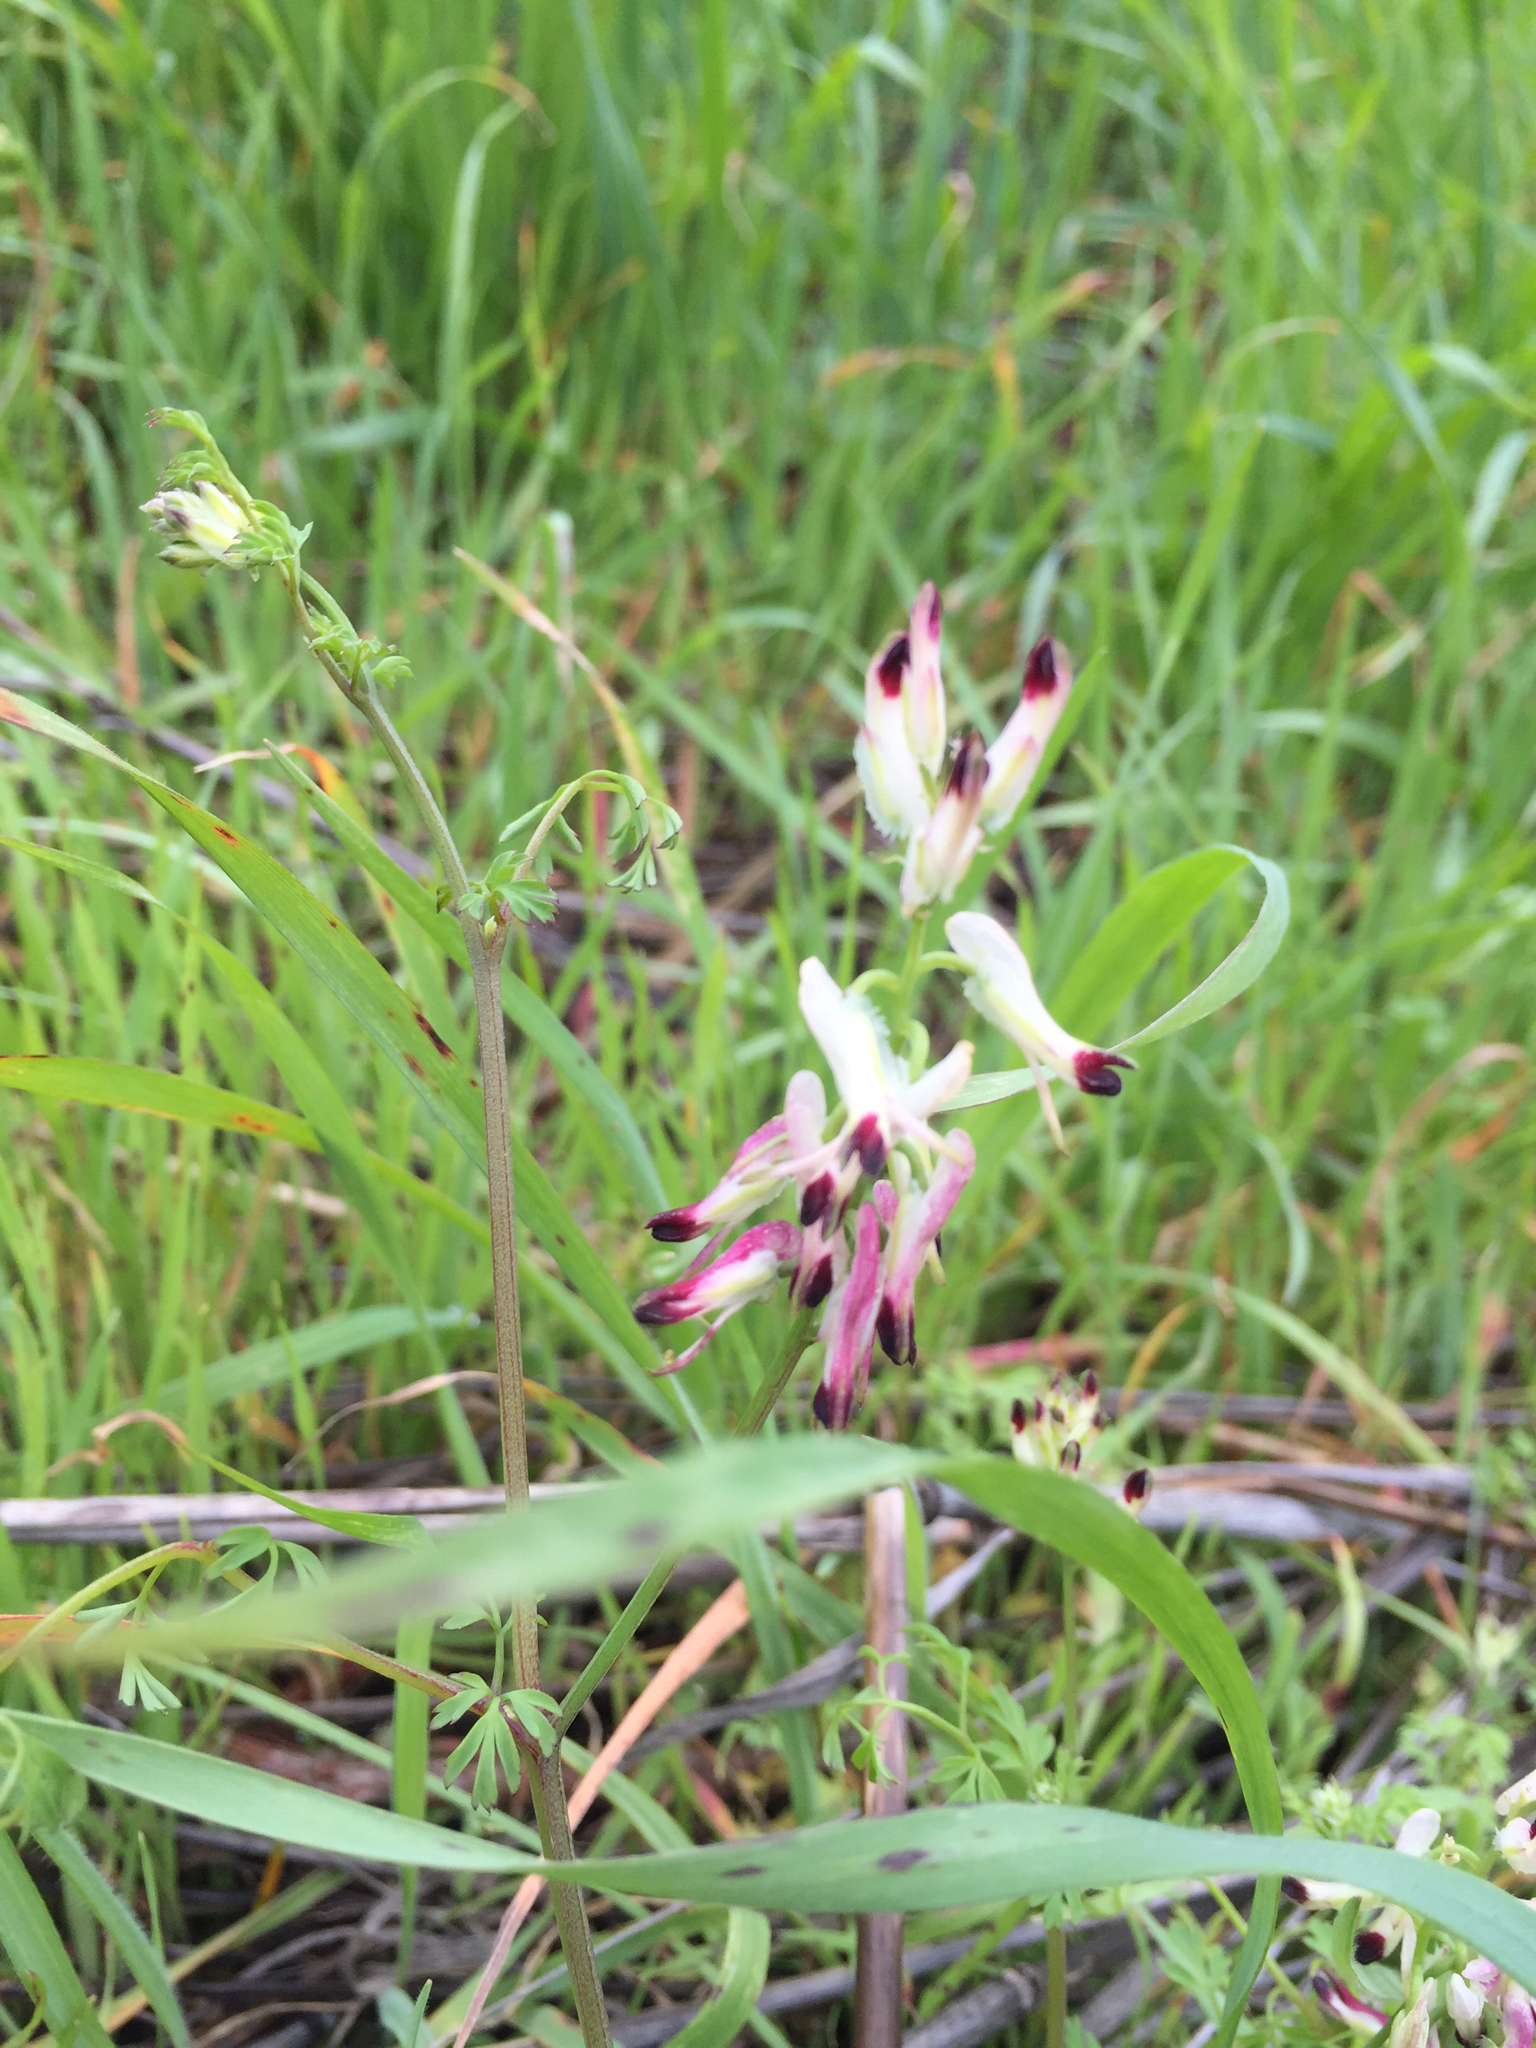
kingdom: Plantae
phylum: Tracheophyta
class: Magnoliopsida
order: Ranunculales
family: Papaveraceae
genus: Fumaria
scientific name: Fumaria capreolata
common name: White ramping-fumitory
